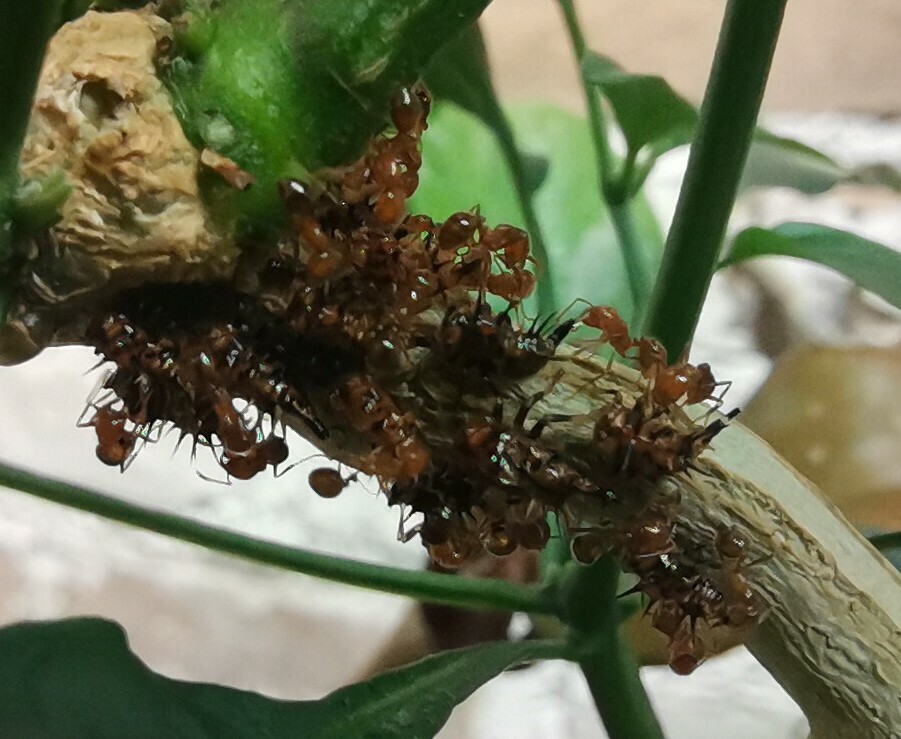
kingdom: Animalia
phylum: Arthropoda
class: Insecta
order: Hymenoptera
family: Formicidae
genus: Solenopsis
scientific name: Solenopsis geminata
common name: Tropical fire ant
